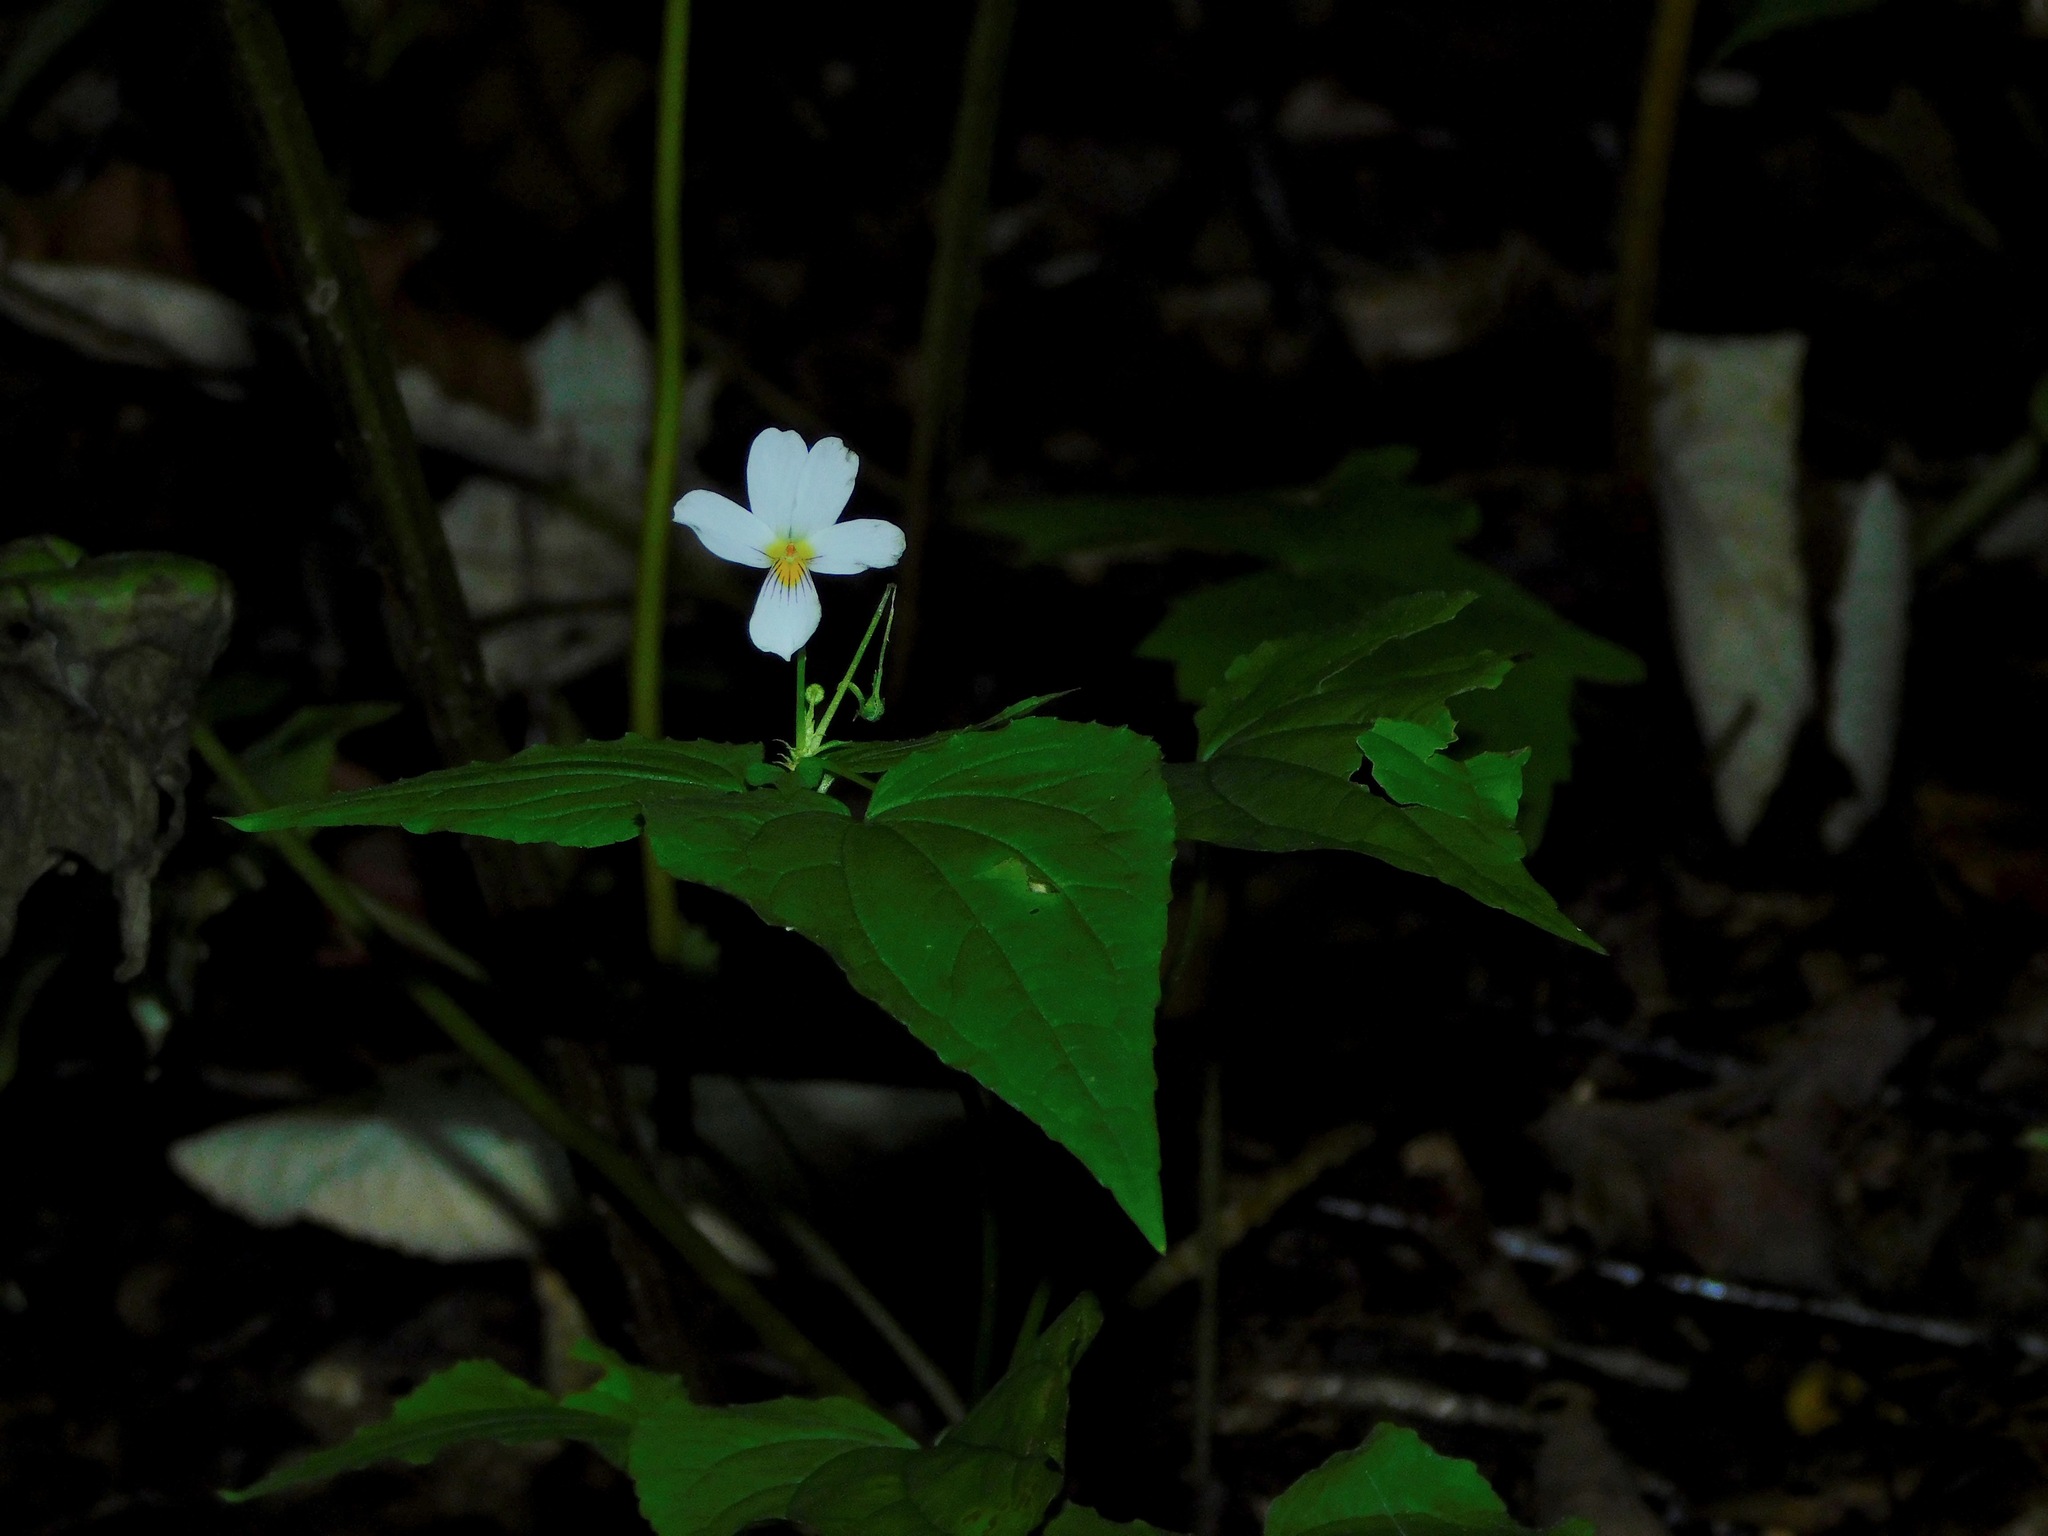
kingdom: Plantae
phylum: Tracheophyta
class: Magnoliopsida
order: Malpighiales
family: Violaceae
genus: Viola
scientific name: Viola canadensis
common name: Canada violet
